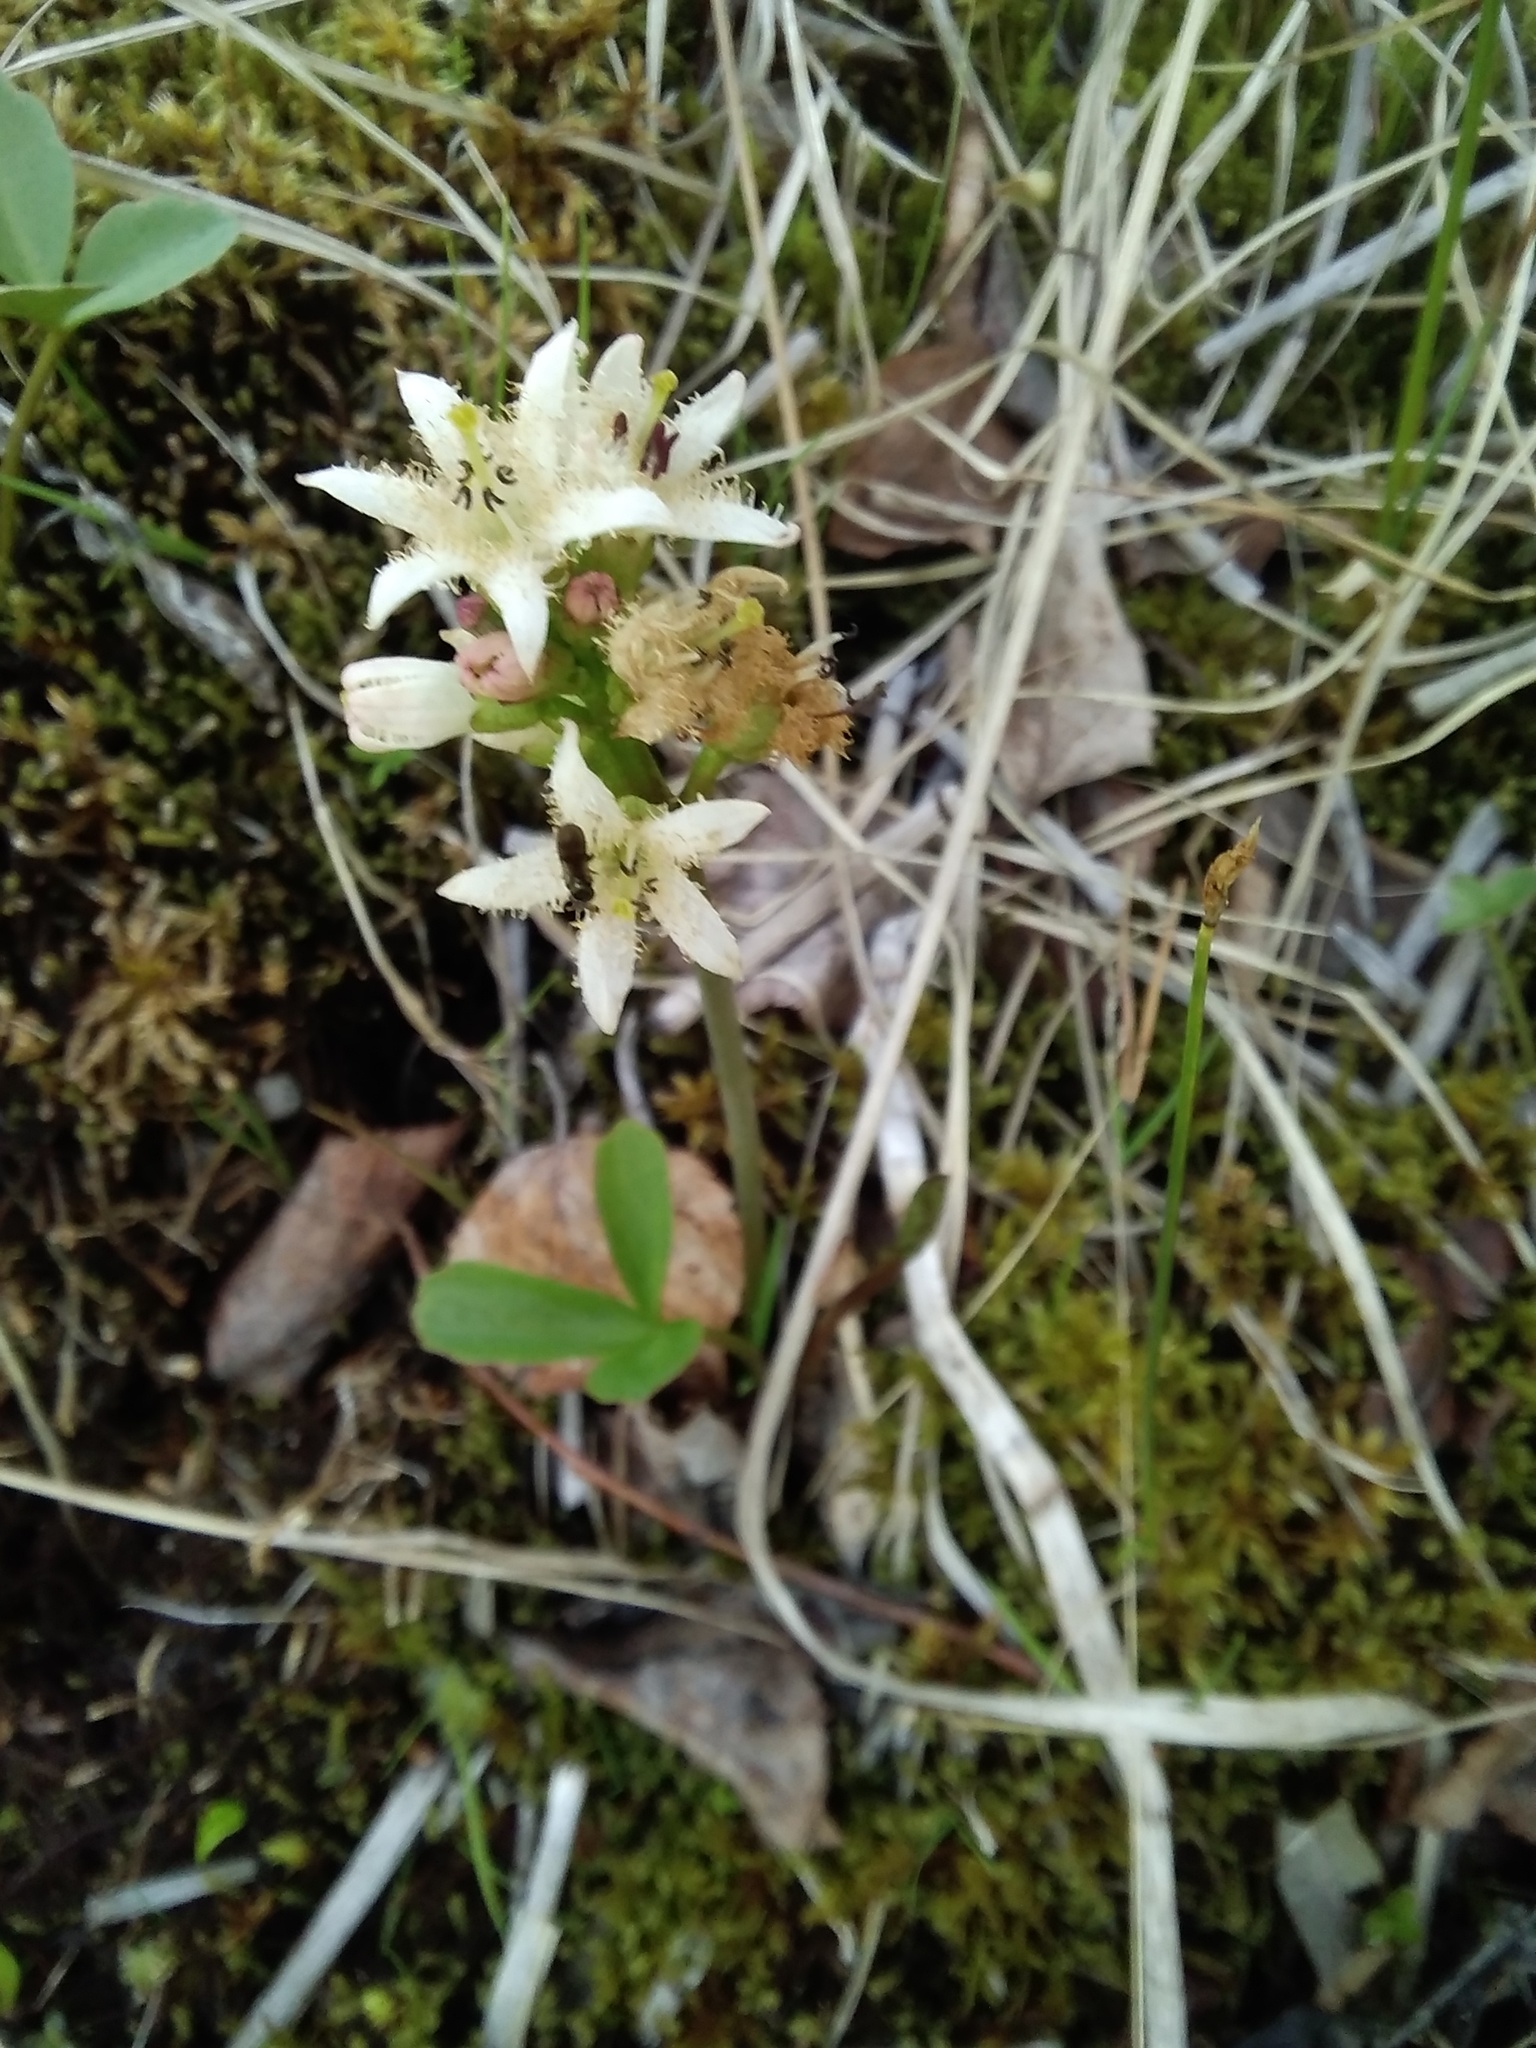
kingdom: Plantae
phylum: Tracheophyta
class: Magnoliopsida
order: Asterales
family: Menyanthaceae
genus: Menyanthes
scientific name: Menyanthes trifoliata
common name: Bogbean
